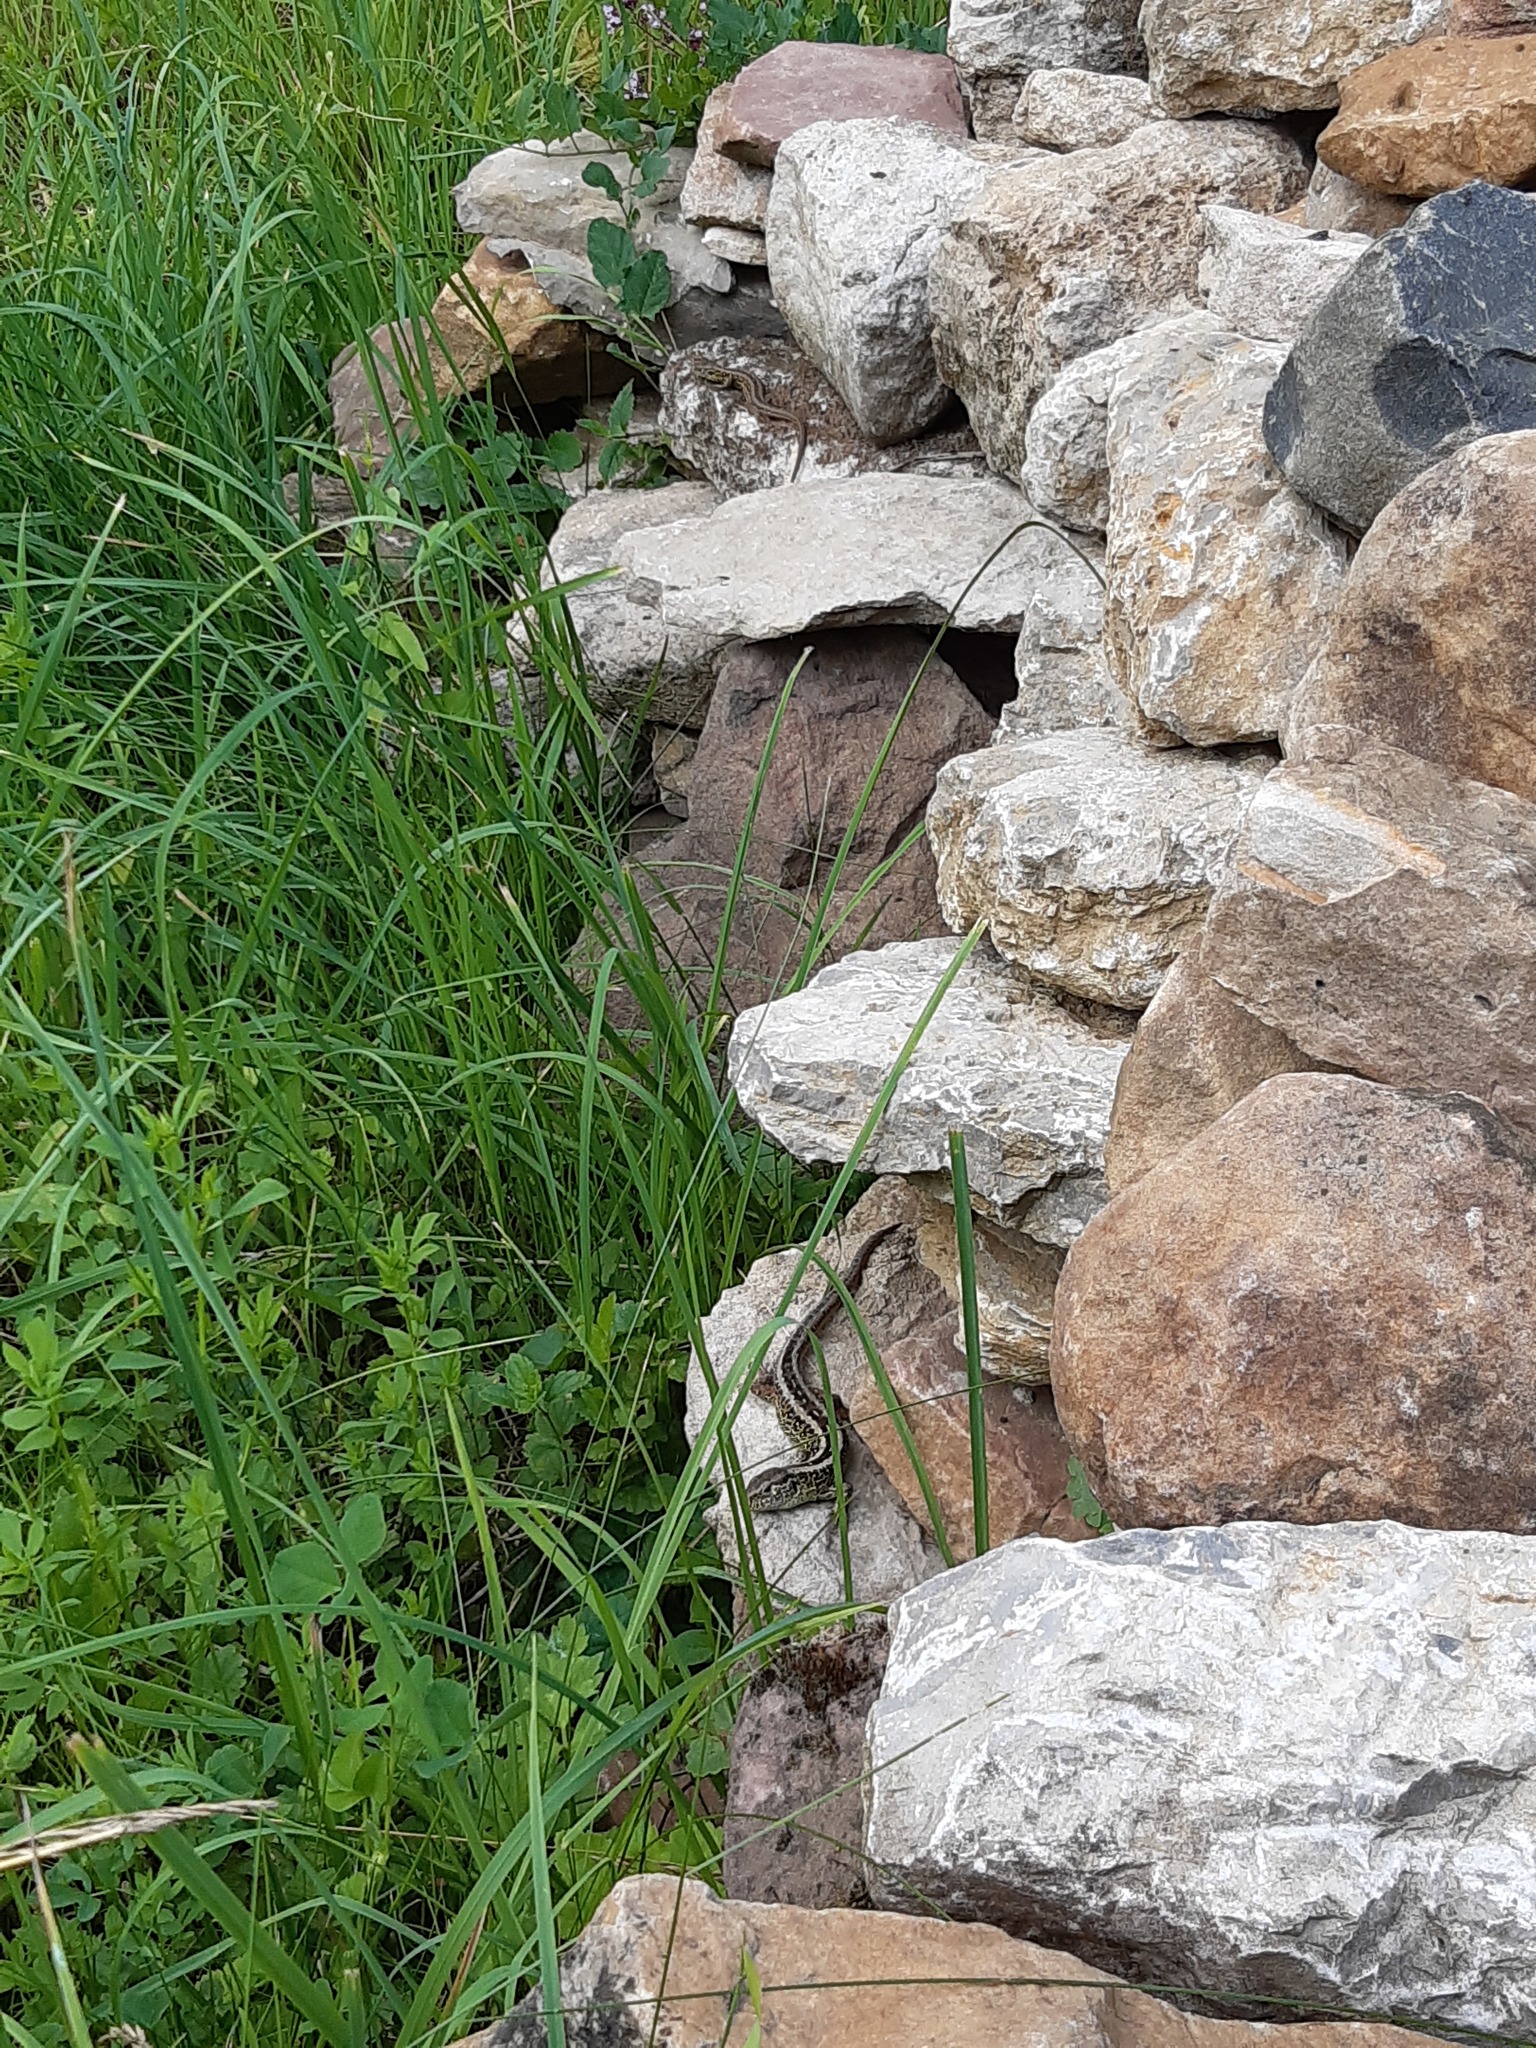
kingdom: Animalia
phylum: Chordata
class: Squamata
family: Lacertidae
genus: Lacerta
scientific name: Lacerta agilis
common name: Sand lizard
